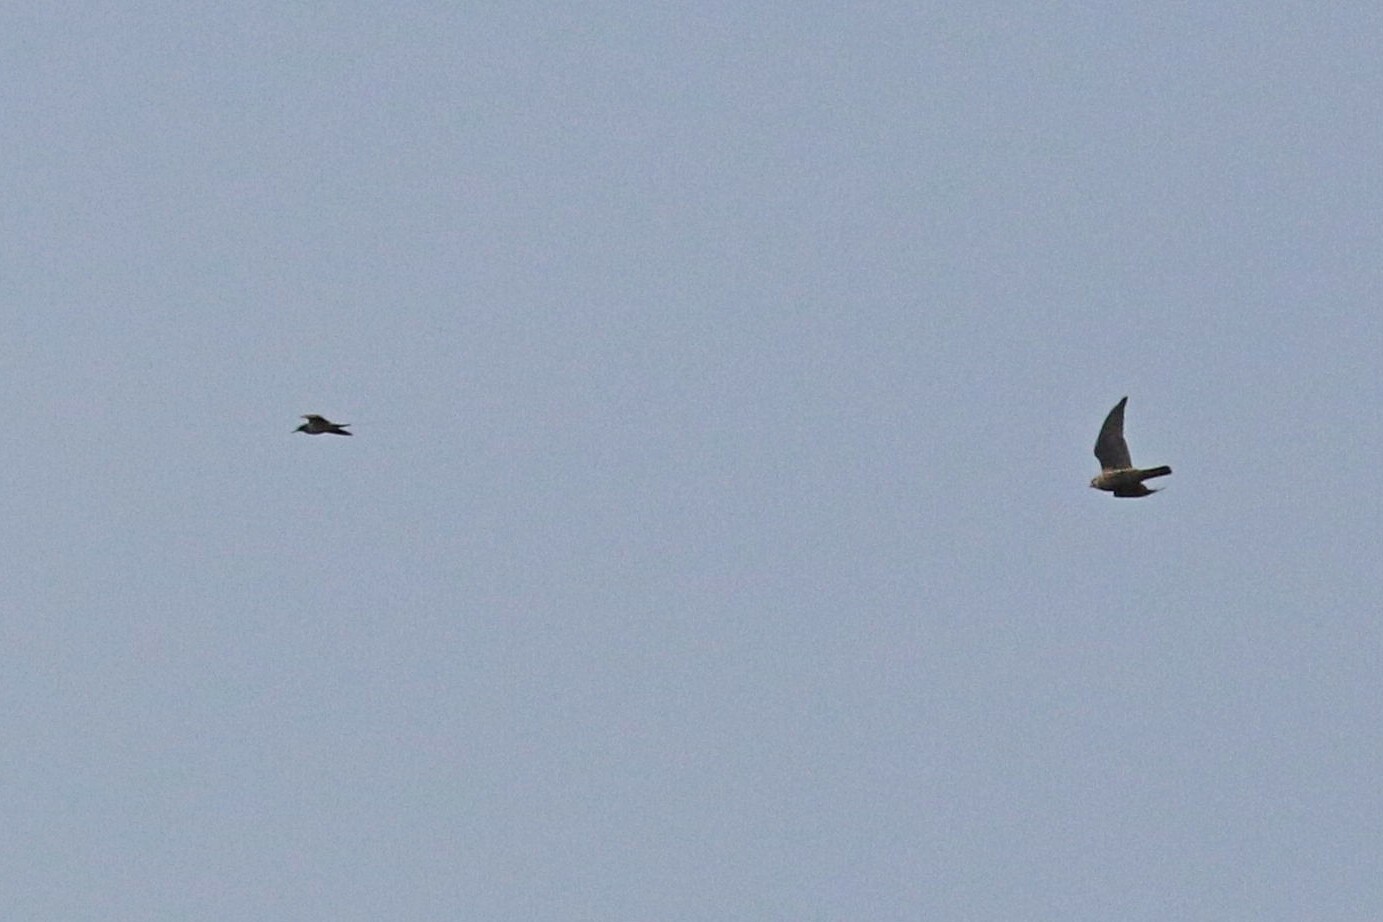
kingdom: Animalia
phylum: Chordata
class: Aves
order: Falconiformes
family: Falconidae
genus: Falco
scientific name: Falco peregrinus
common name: Peregrine falcon
